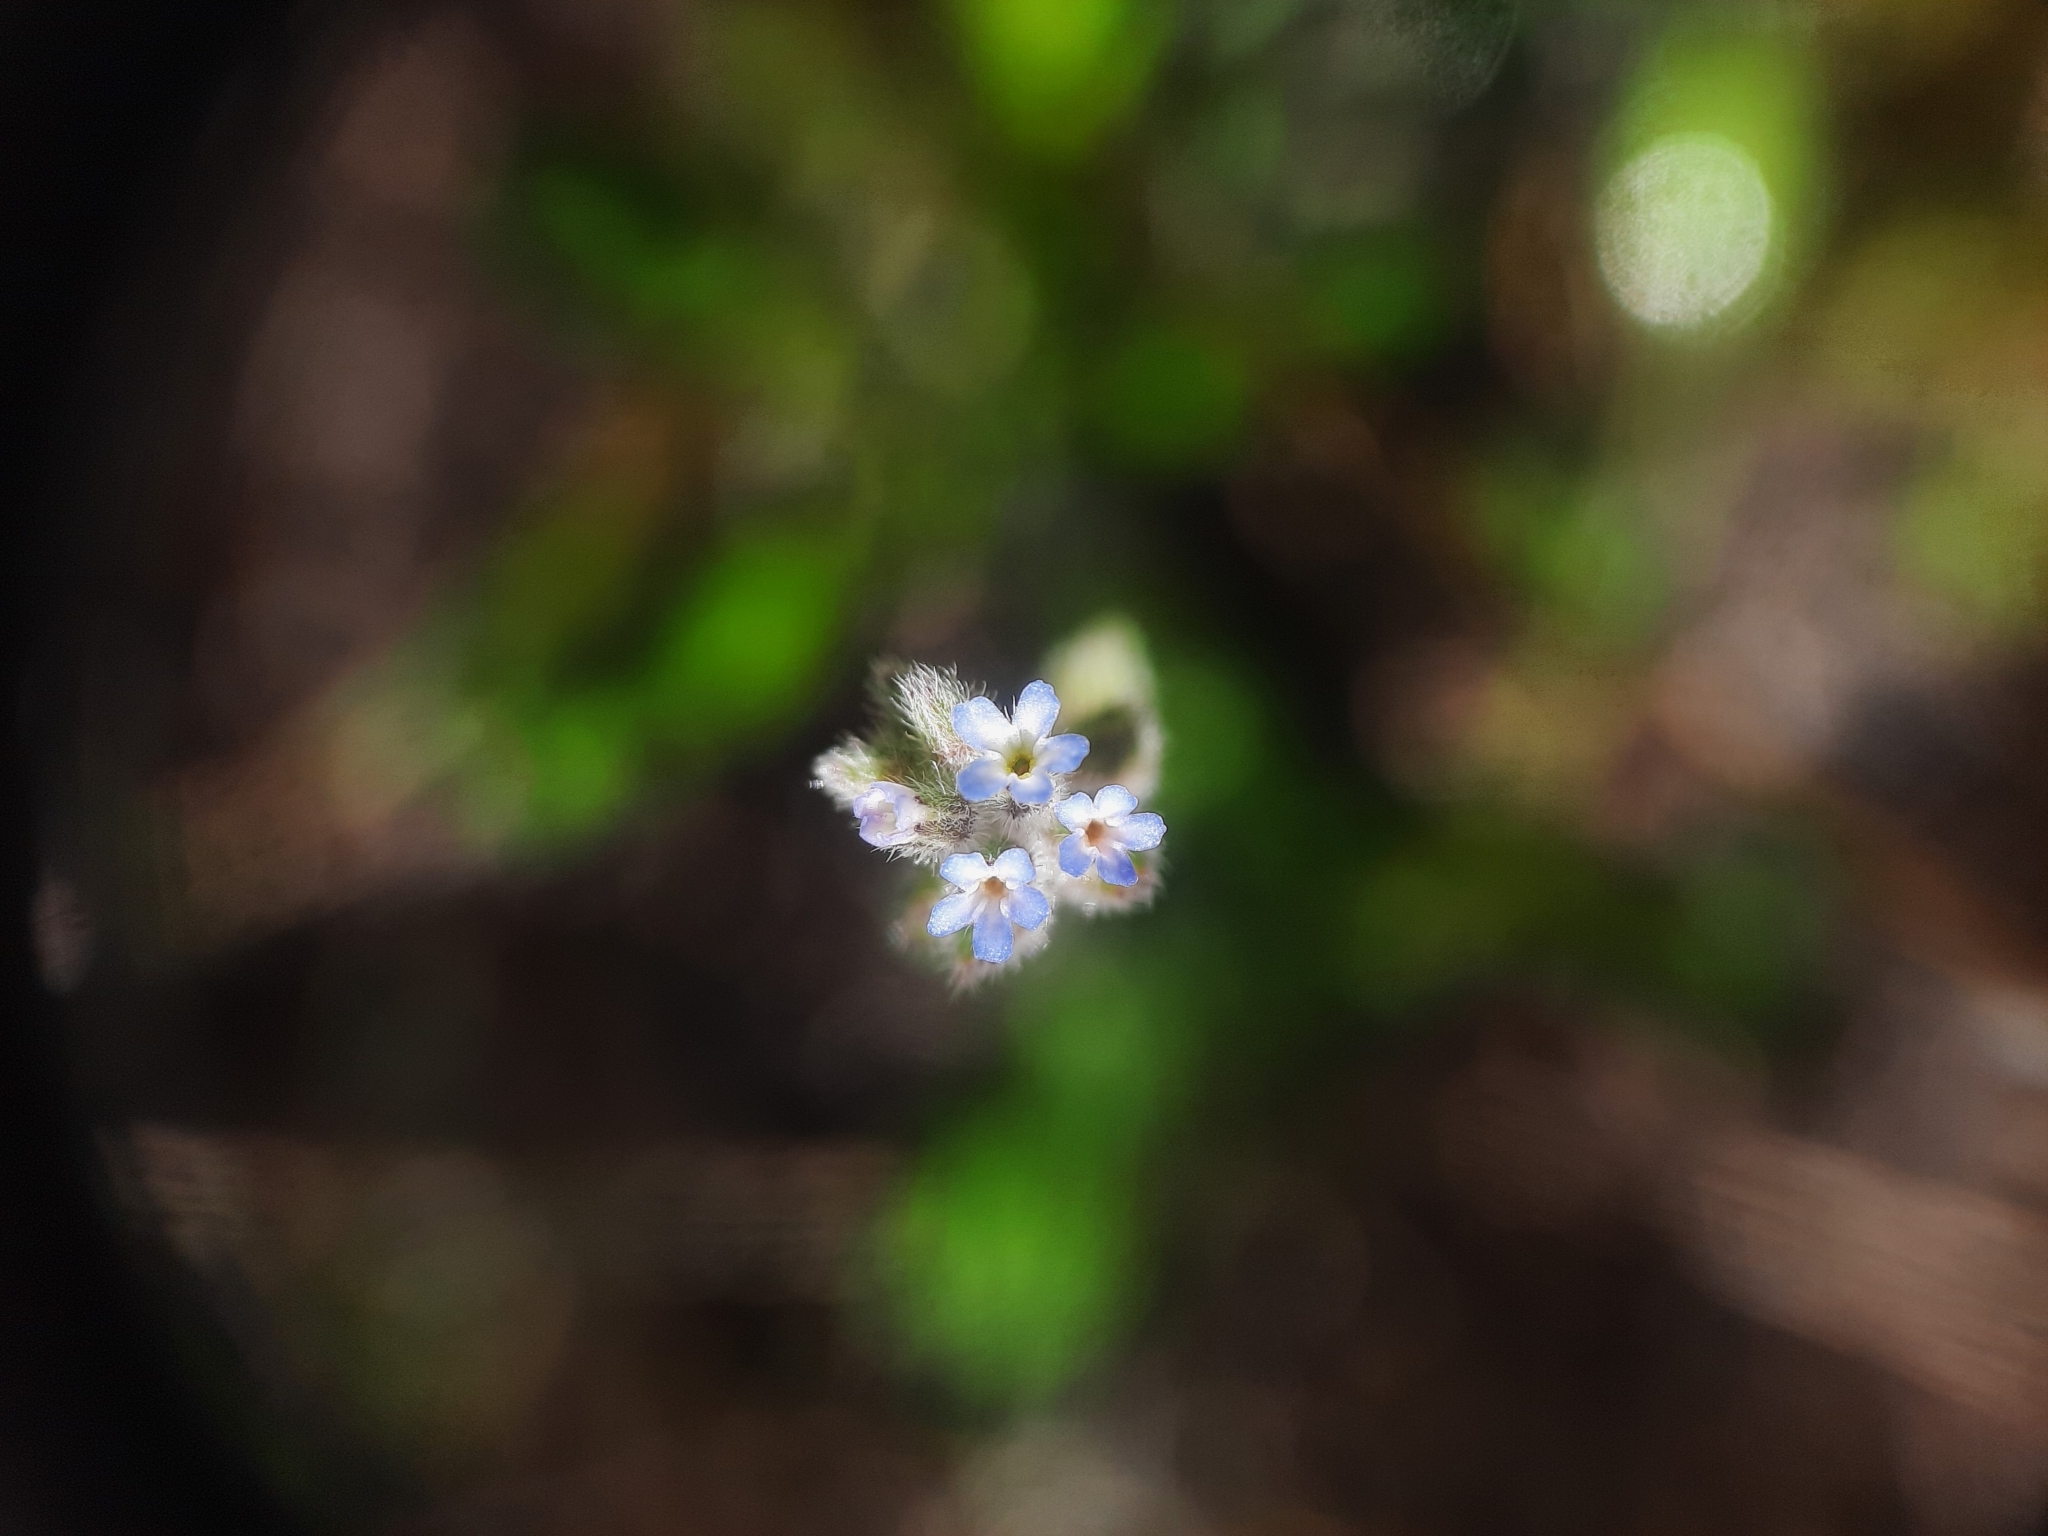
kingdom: Plantae
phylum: Tracheophyta
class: Magnoliopsida
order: Boraginales
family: Boraginaceae
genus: Myosotis
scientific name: Myosotis stricta
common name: Strict forget-me-not
